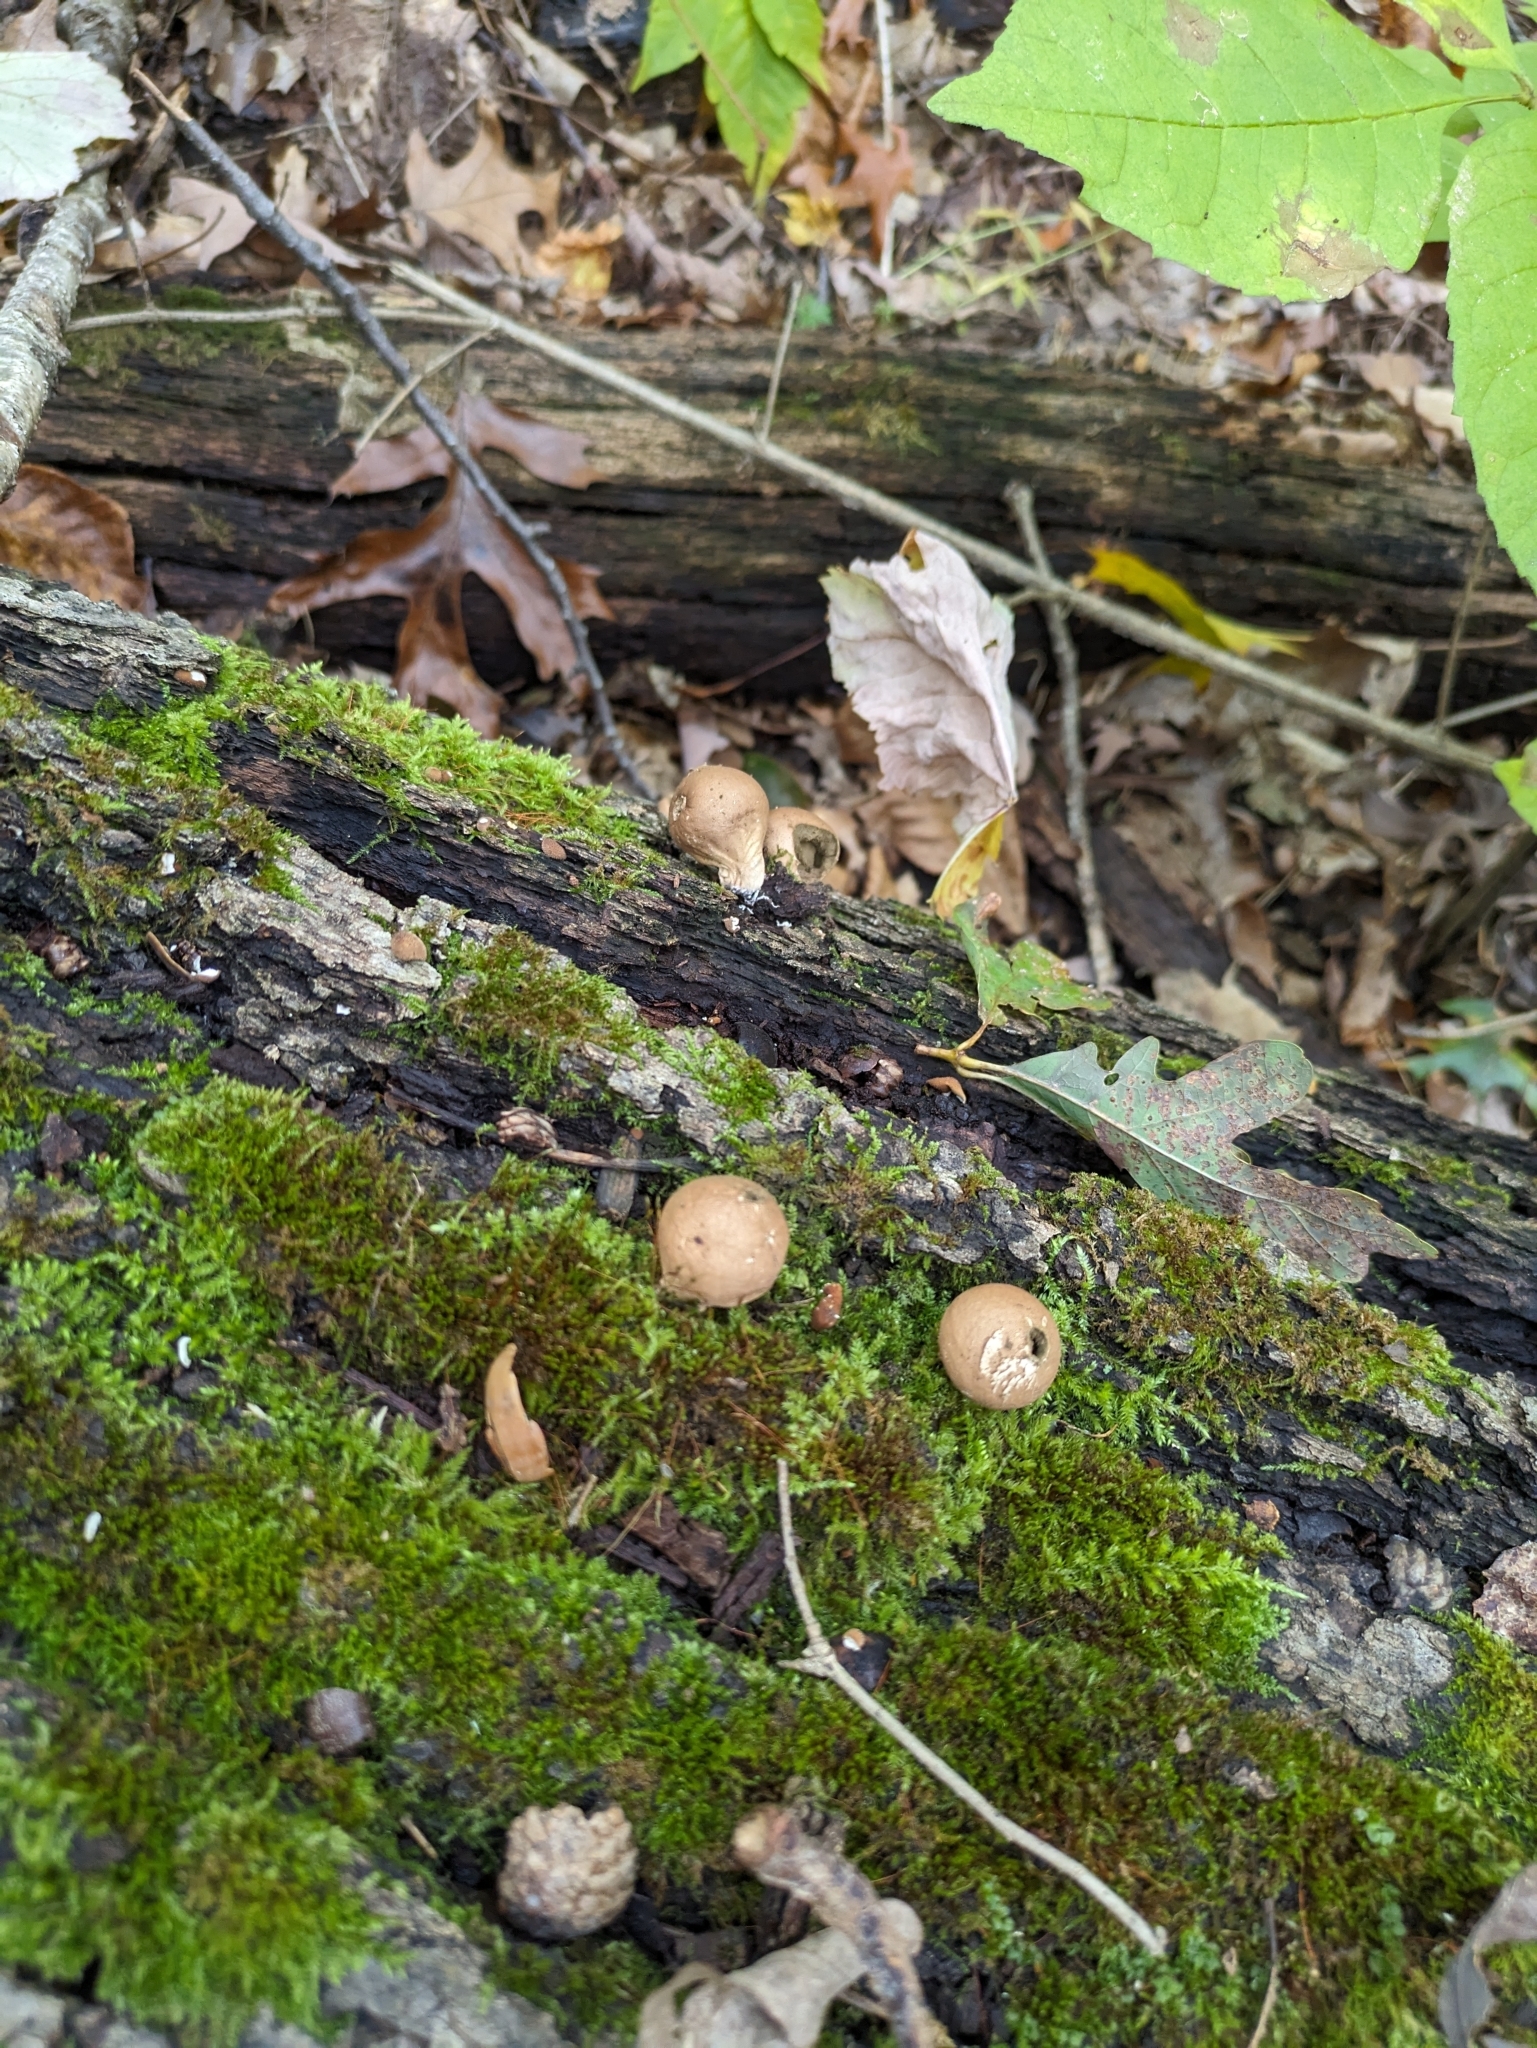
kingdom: Fungi
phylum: Basidiomycota
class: Agaricomycetes
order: Agaricales
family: Lycoperdaceae
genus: Apioperdon
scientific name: Apioperdon pyriforme
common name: Pear-shaped puffball
